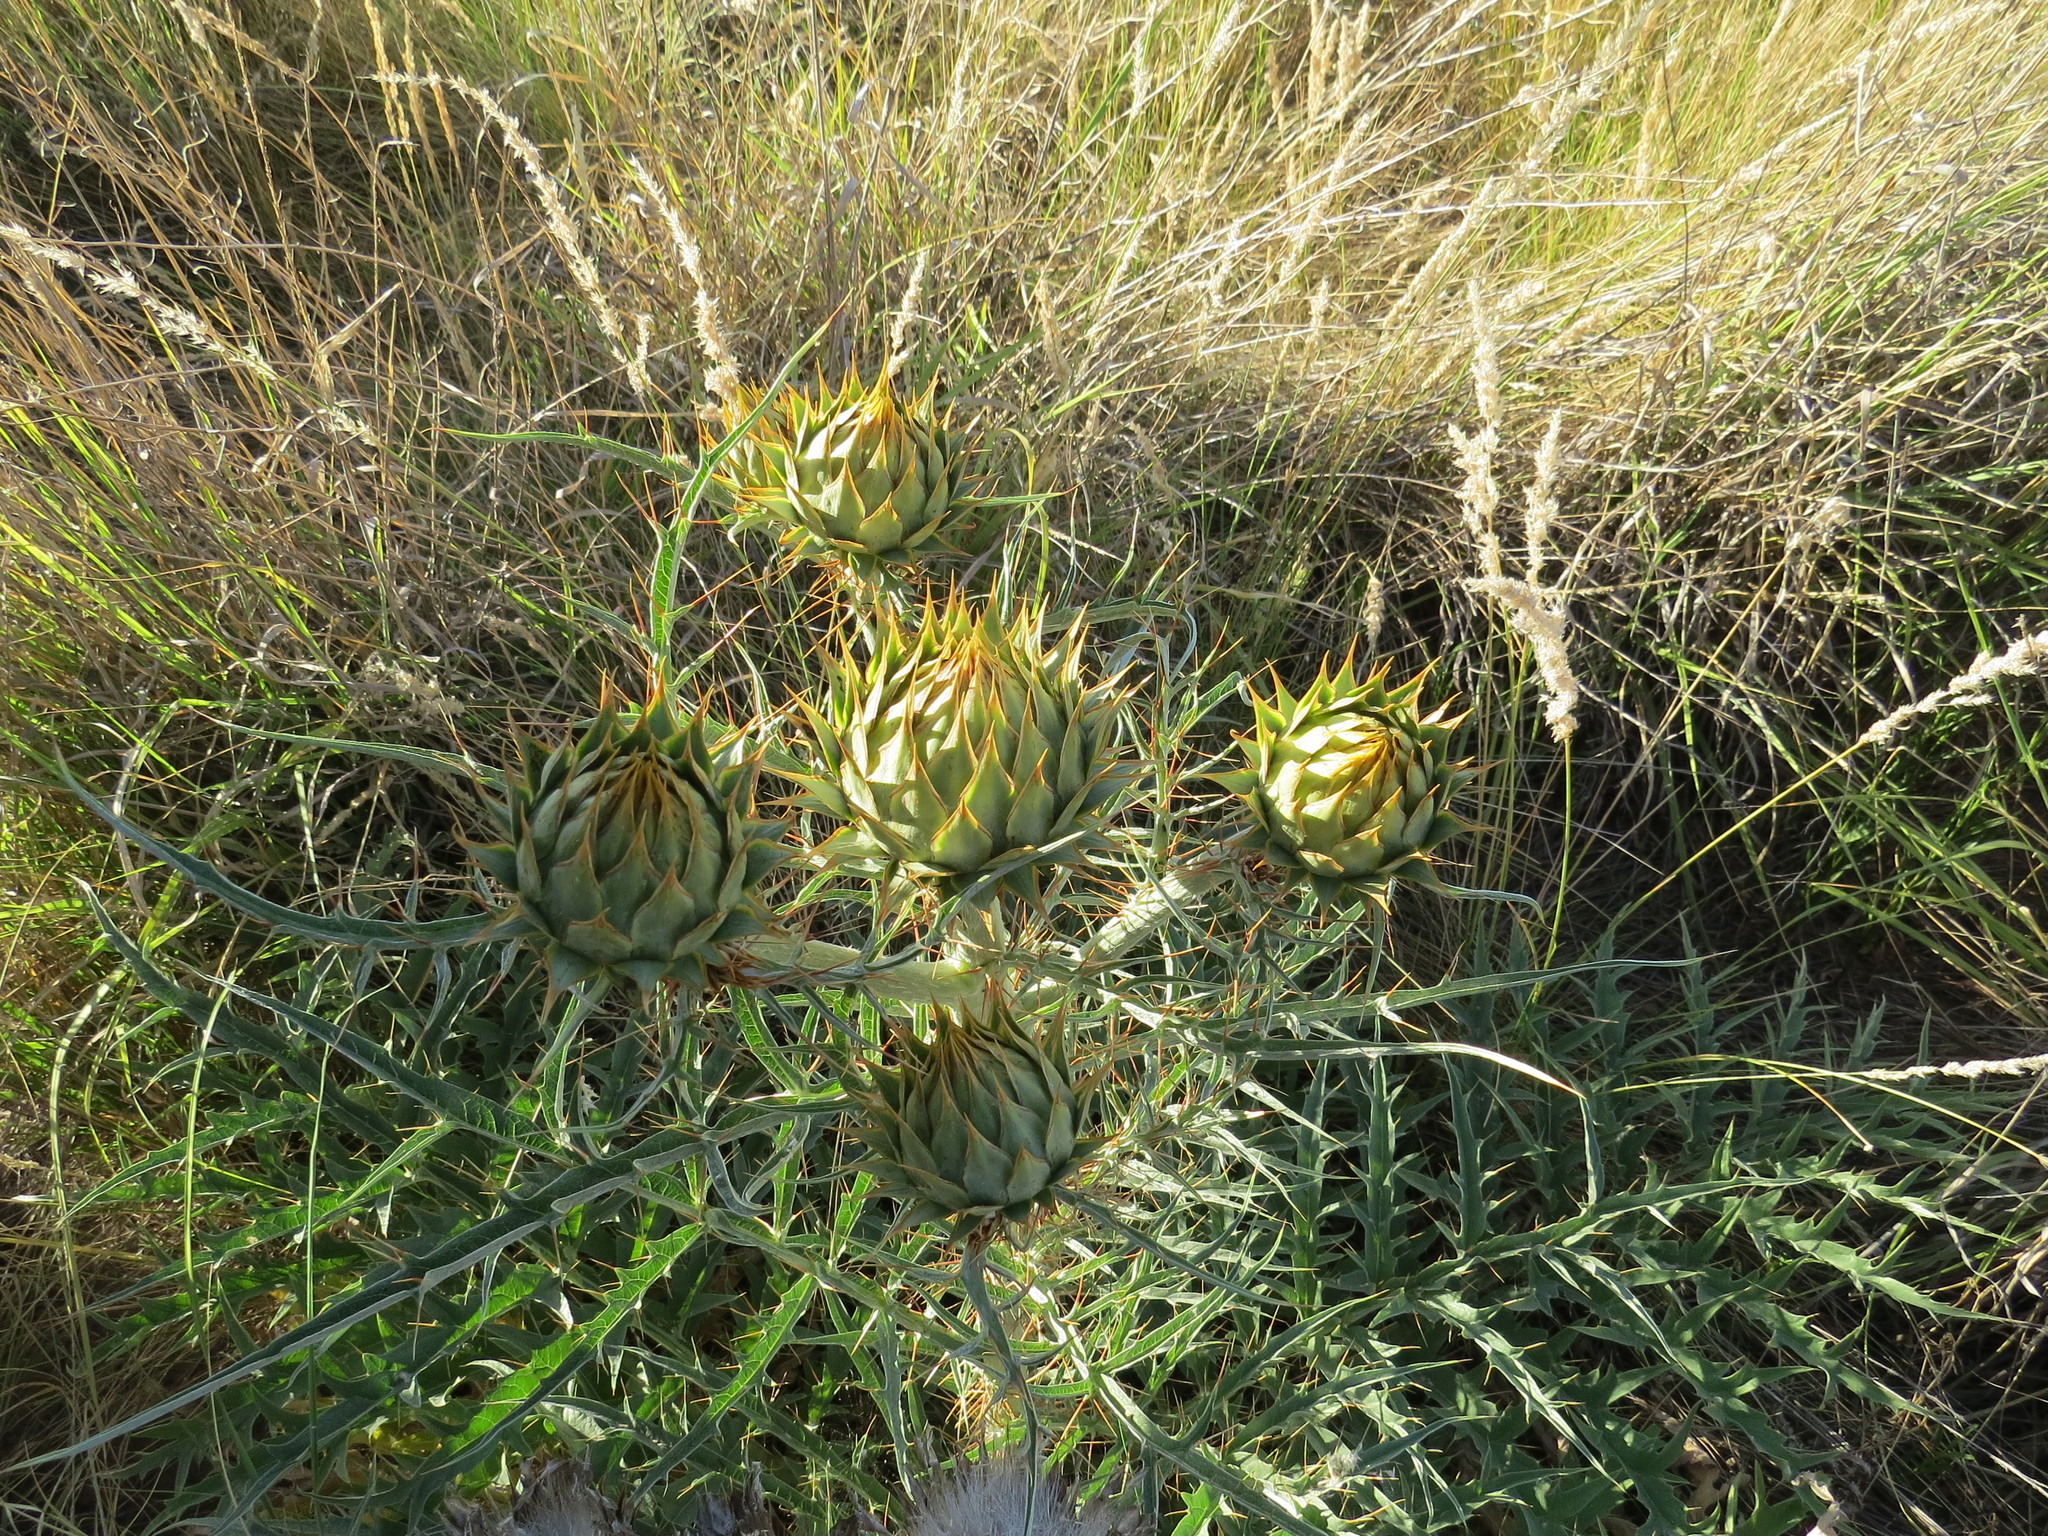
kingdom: Plantae
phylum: Tracheophyta
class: Magnoliopsida
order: Asterales
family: Asteraceae
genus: Cynara
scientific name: Cynara cardunculus
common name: Globe artichoke
